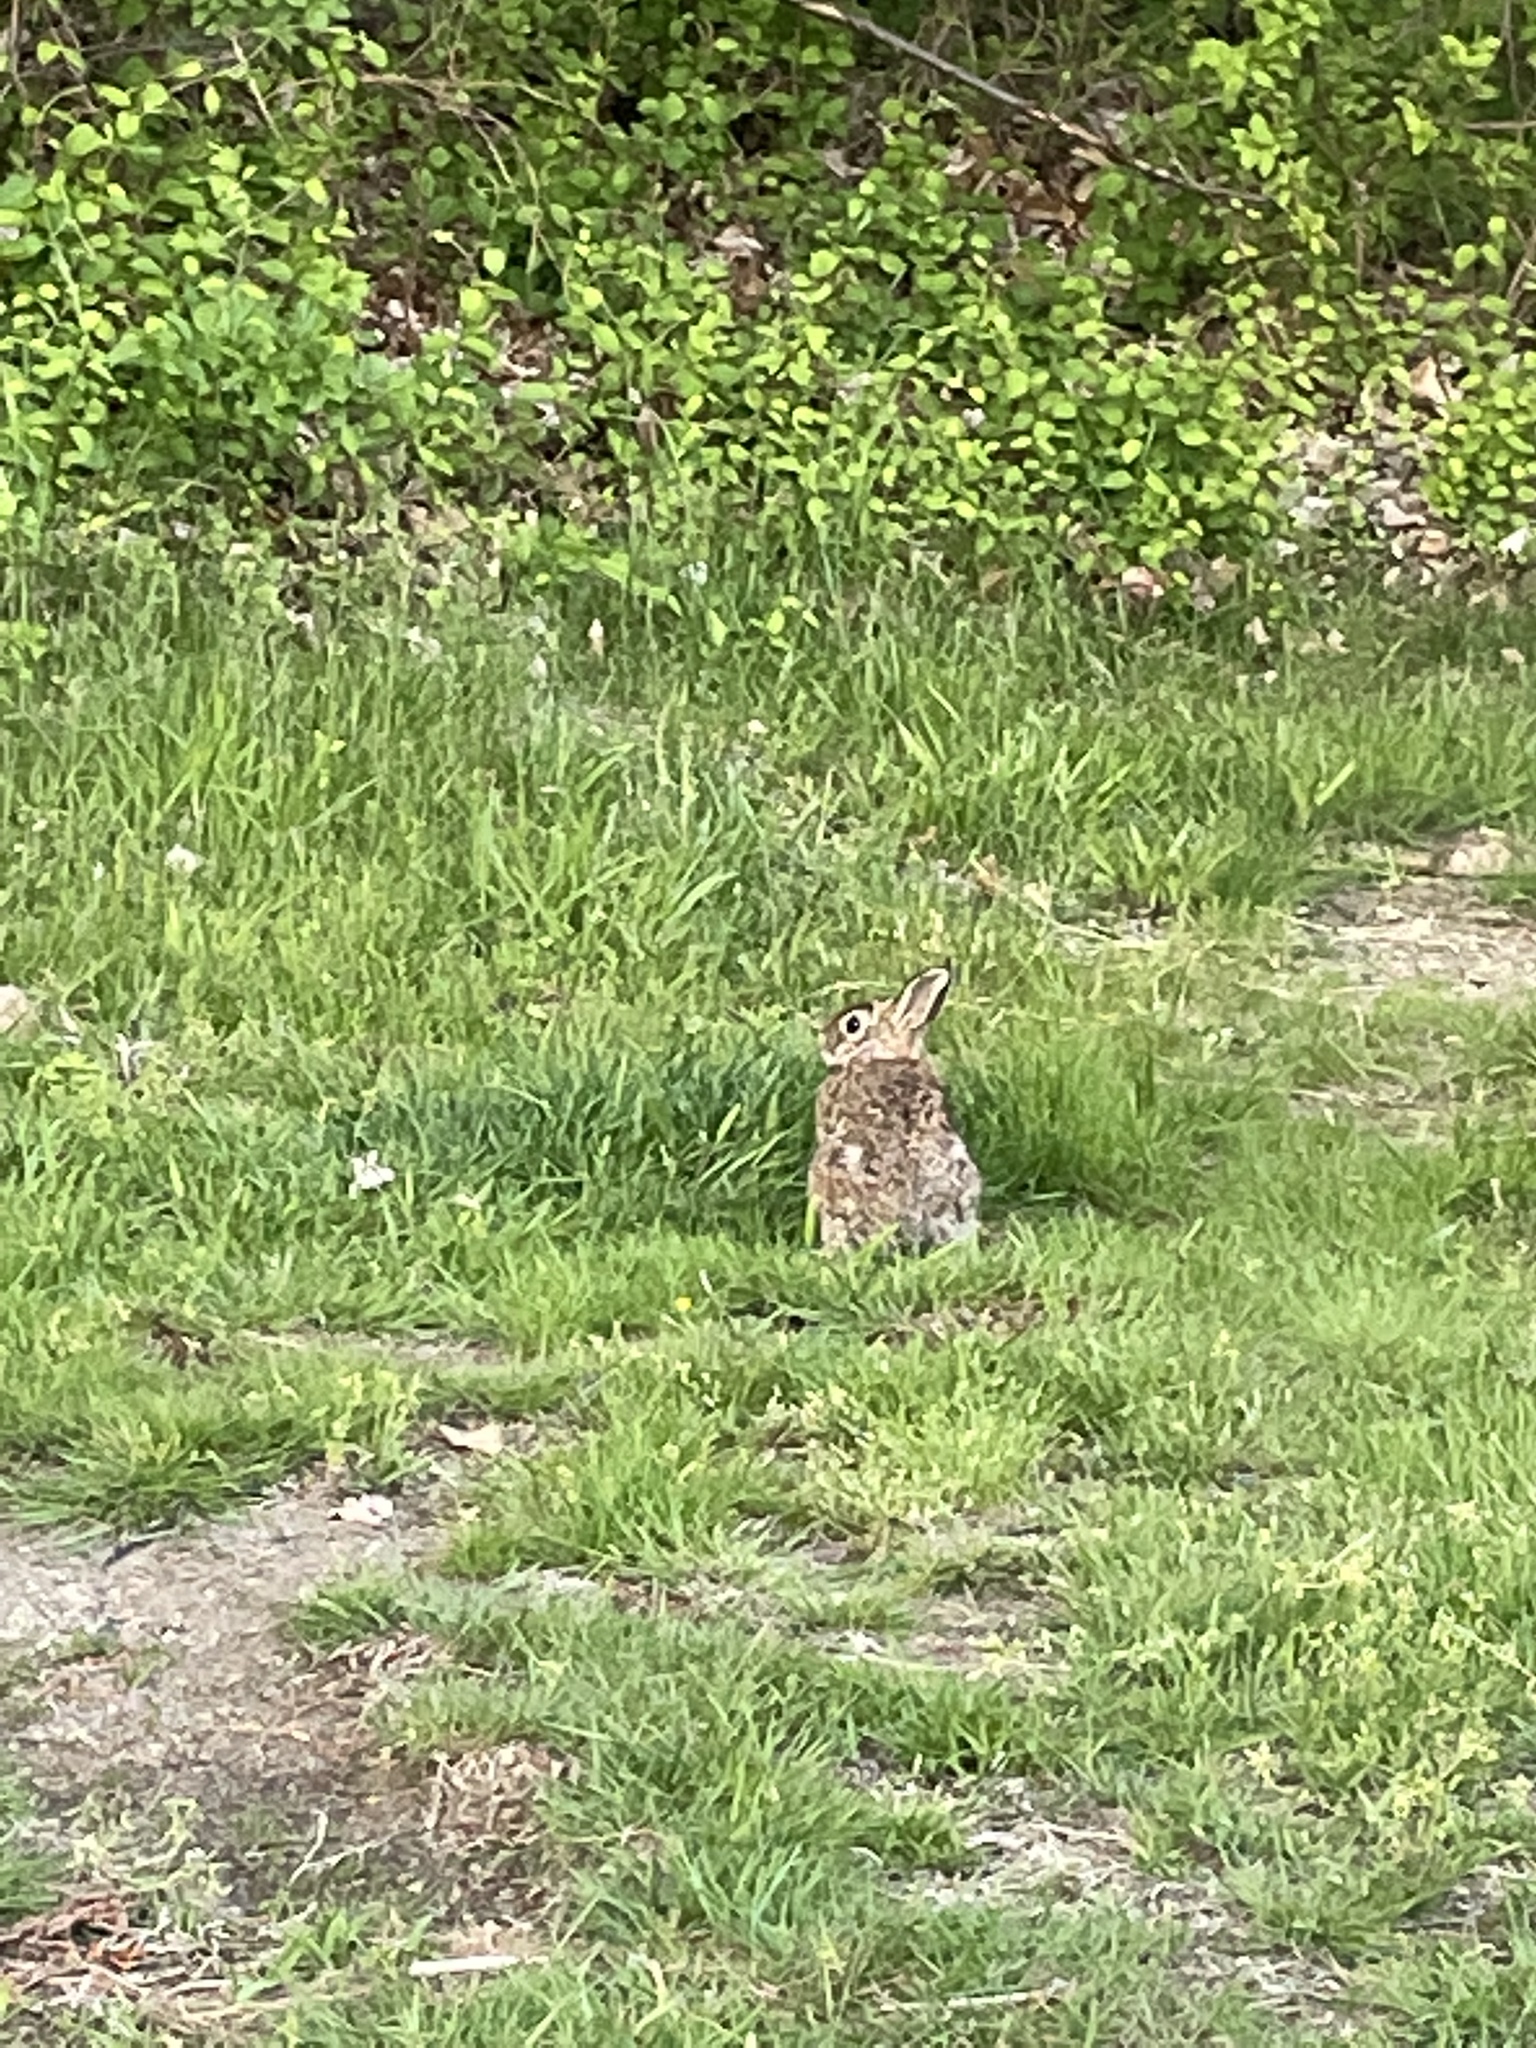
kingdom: Animalia
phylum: Chordata
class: Mammalia
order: Lagomorpha
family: Leporidae
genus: Sylvilagus
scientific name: Sylvilagus floridanus
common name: Eastern cottontail
